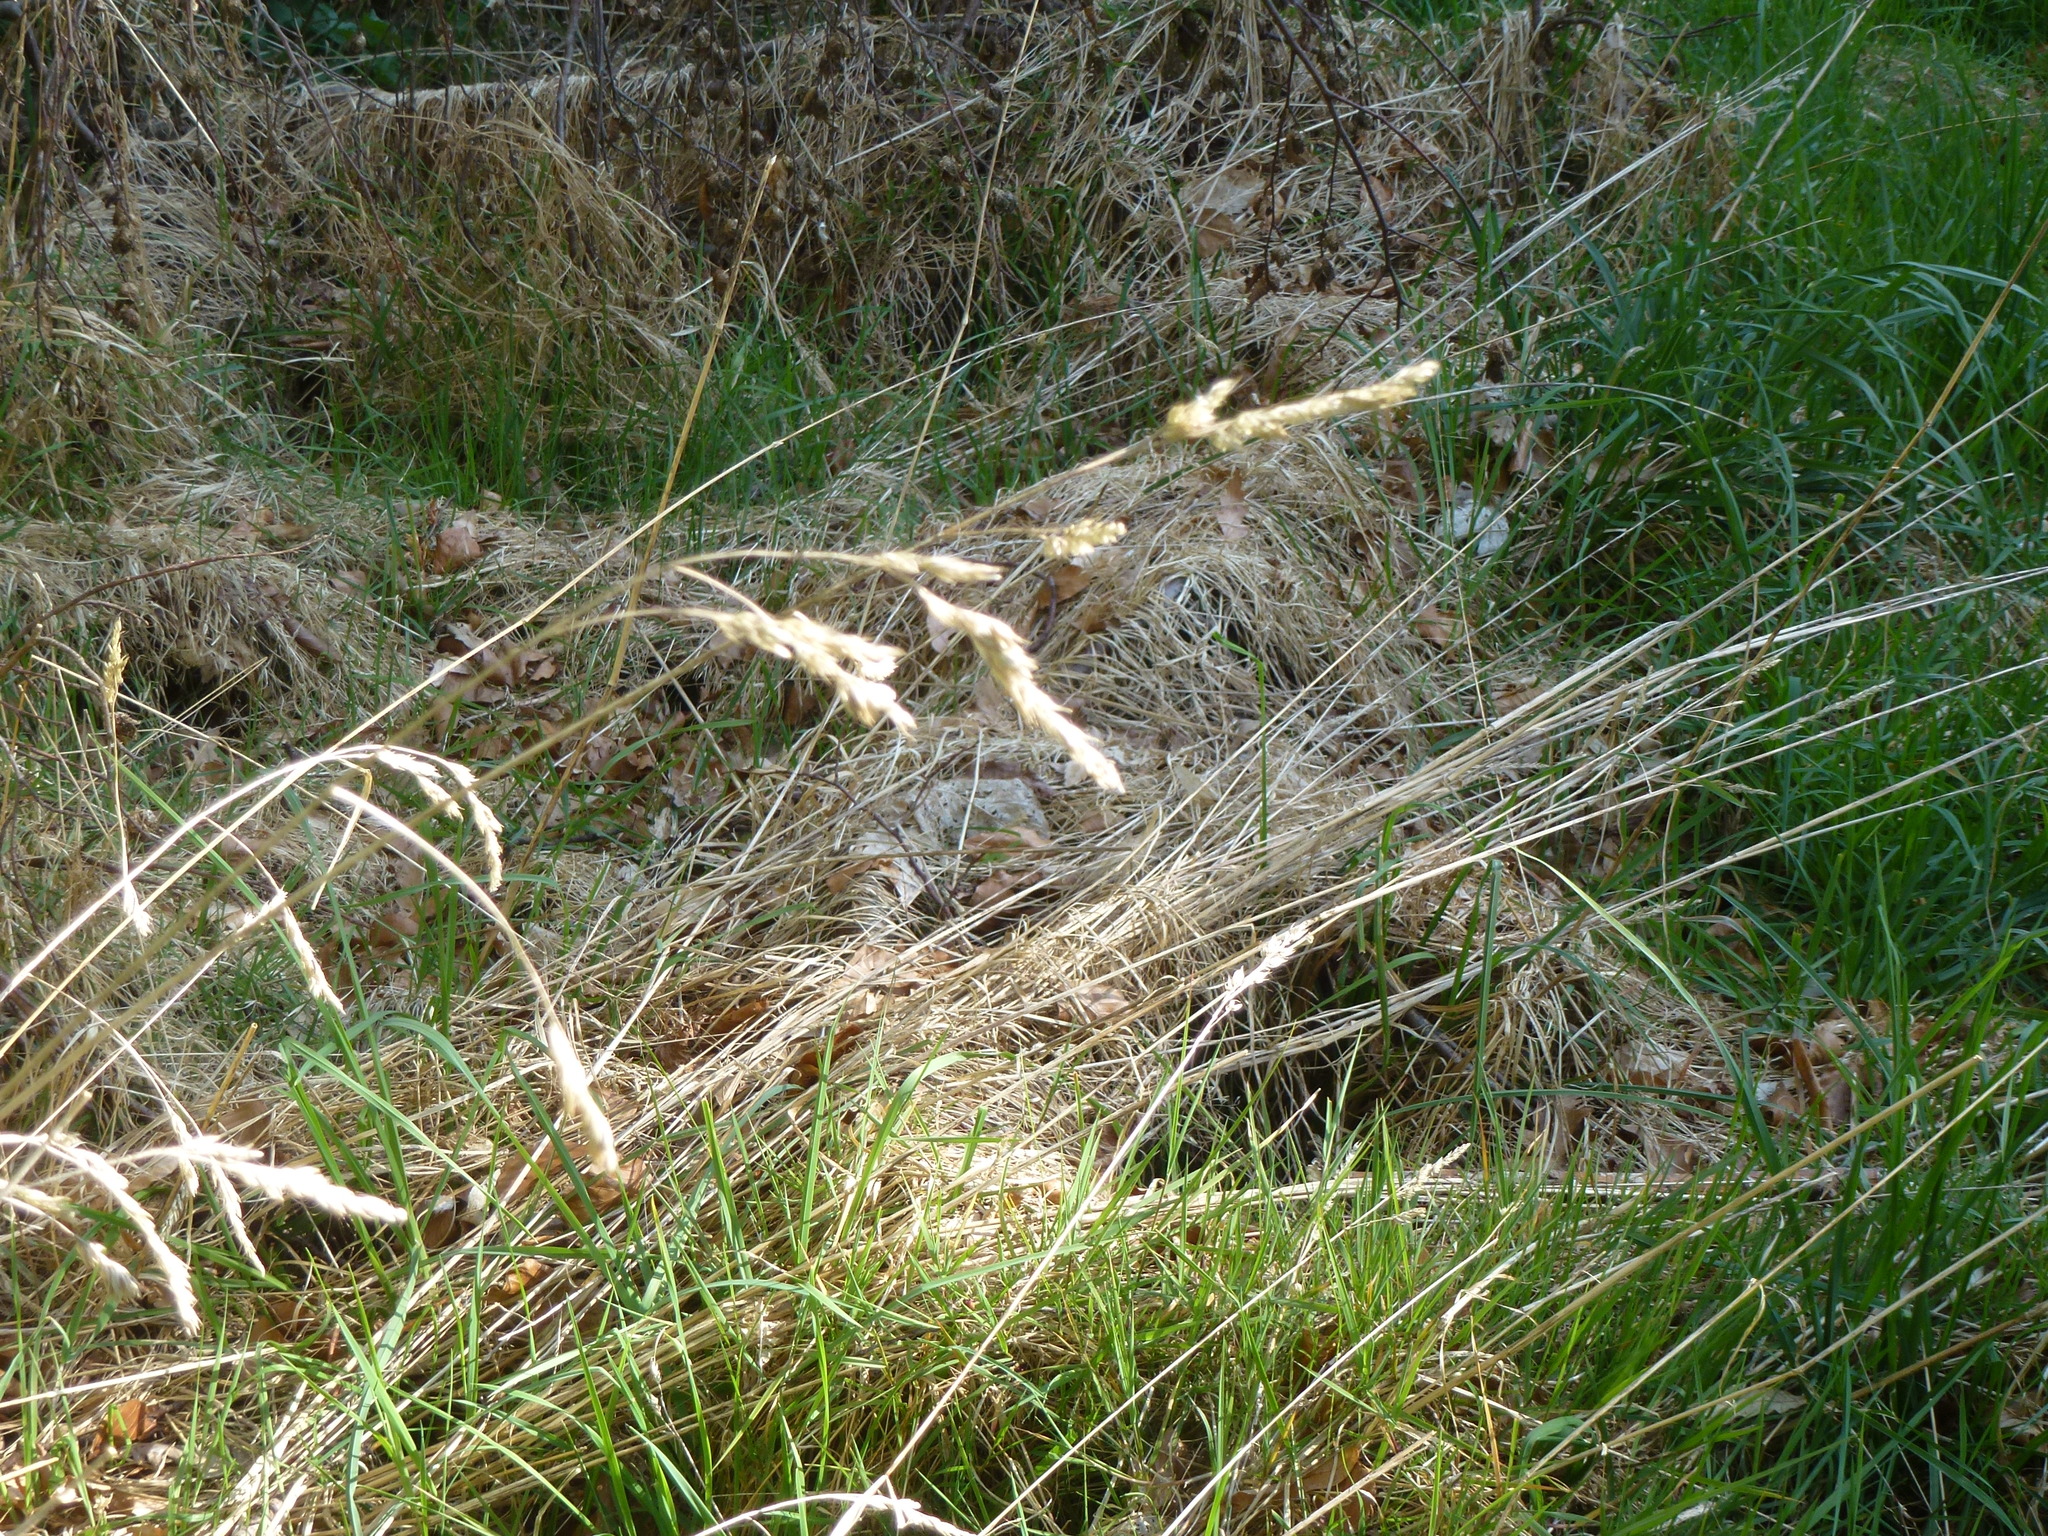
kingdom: Plantae
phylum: Tracheophyta
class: Liliopsida
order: Poales
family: Poaceae
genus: Dactylis
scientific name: Dactylis glomerata
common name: Orchardgrass
